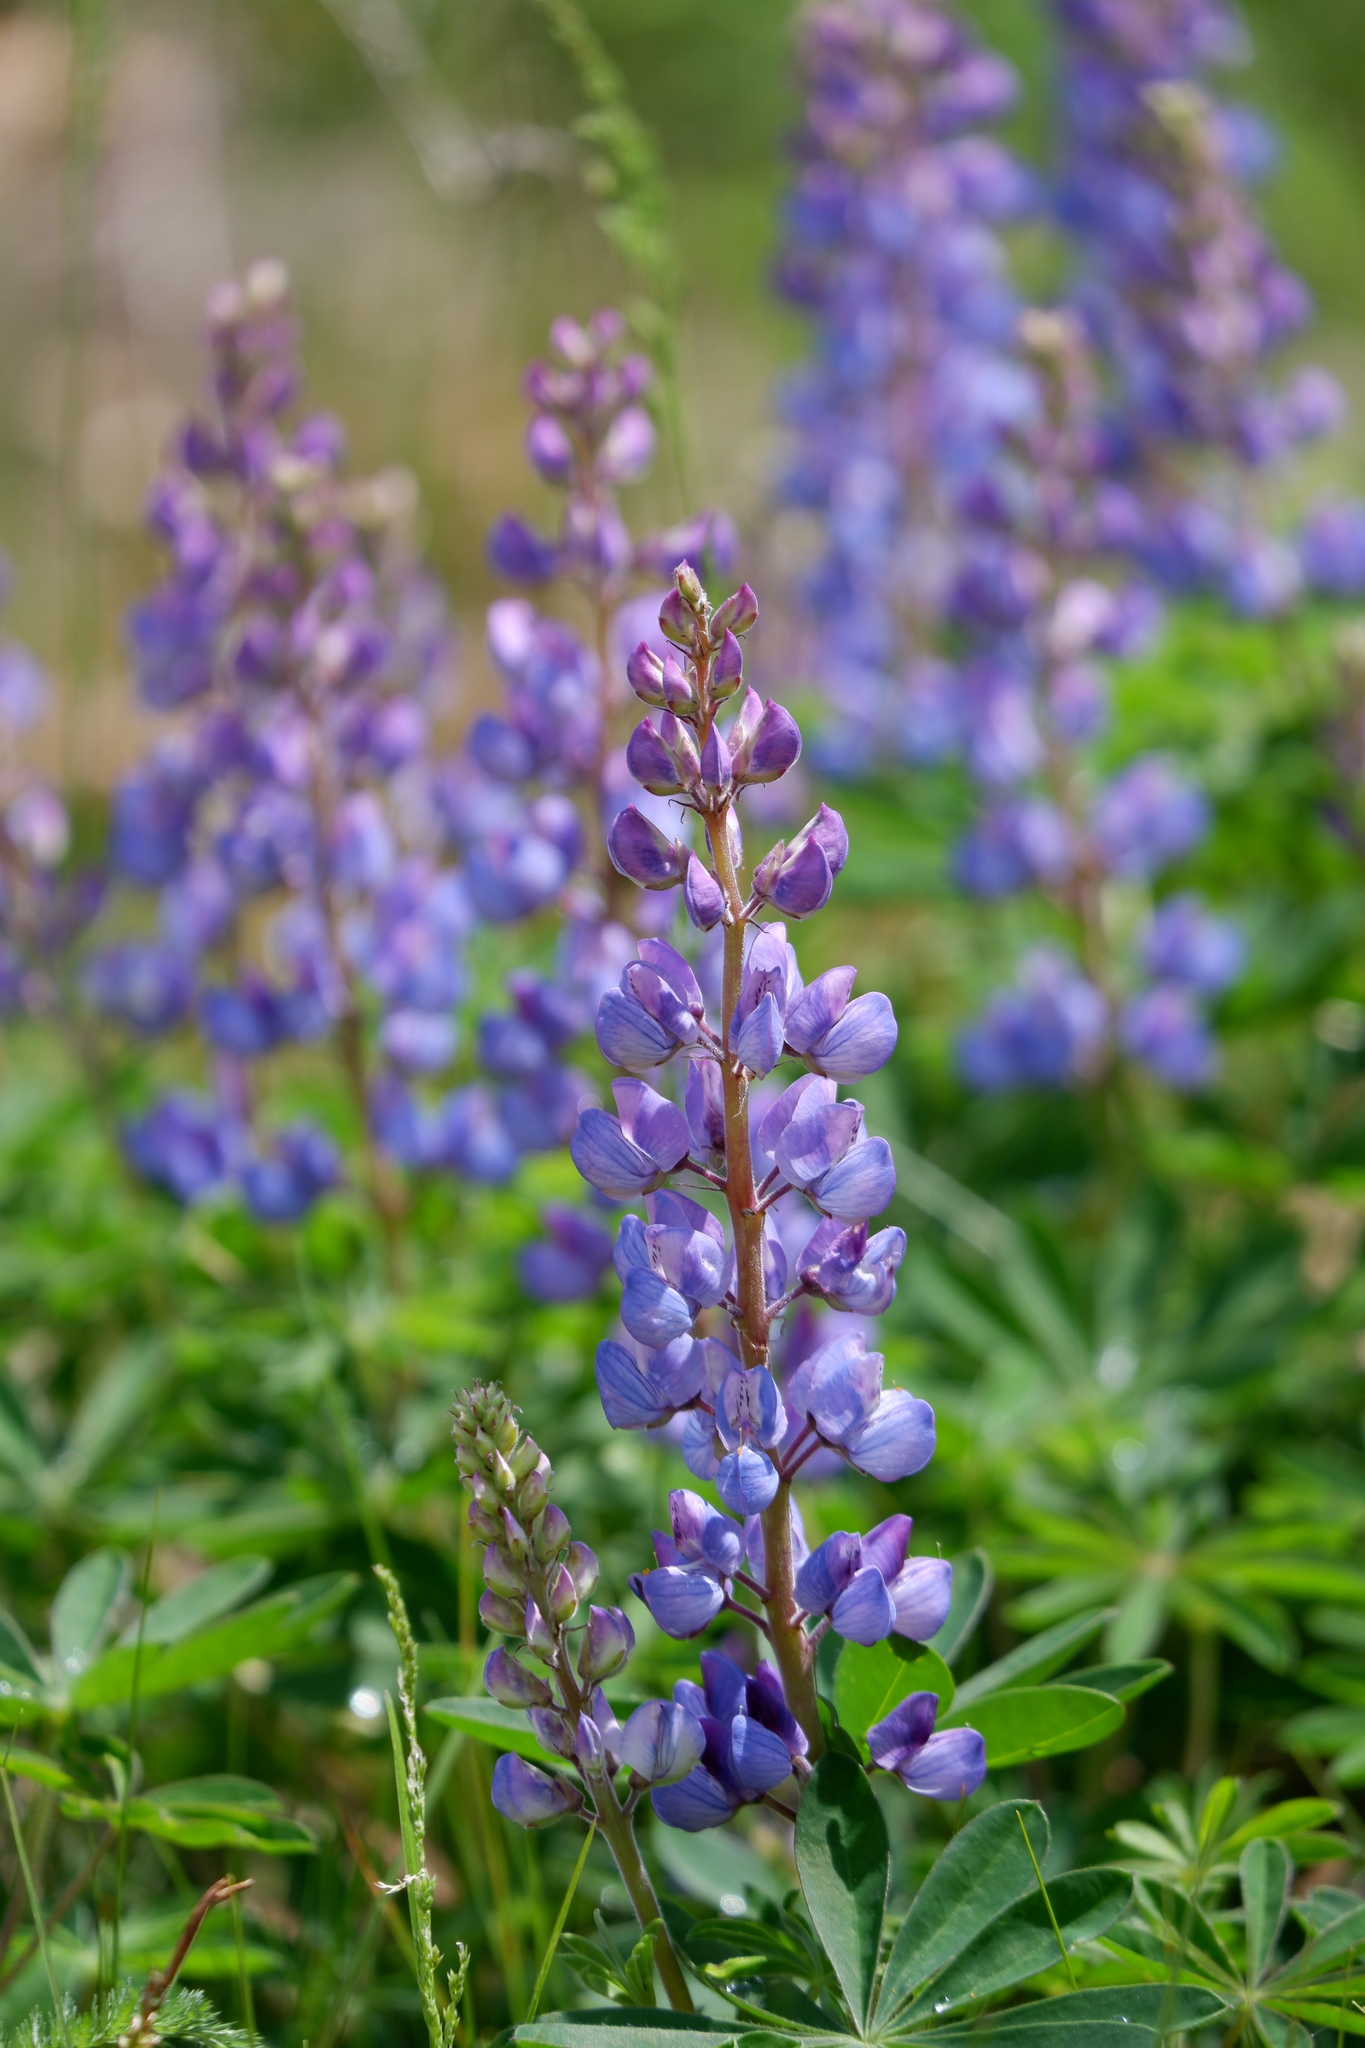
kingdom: Plantae
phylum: Tracheophyta
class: Magnoliopsida
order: Fabales
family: Fabaceae
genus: Lupinus
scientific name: Lupinus perennis
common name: Sundial lupine
